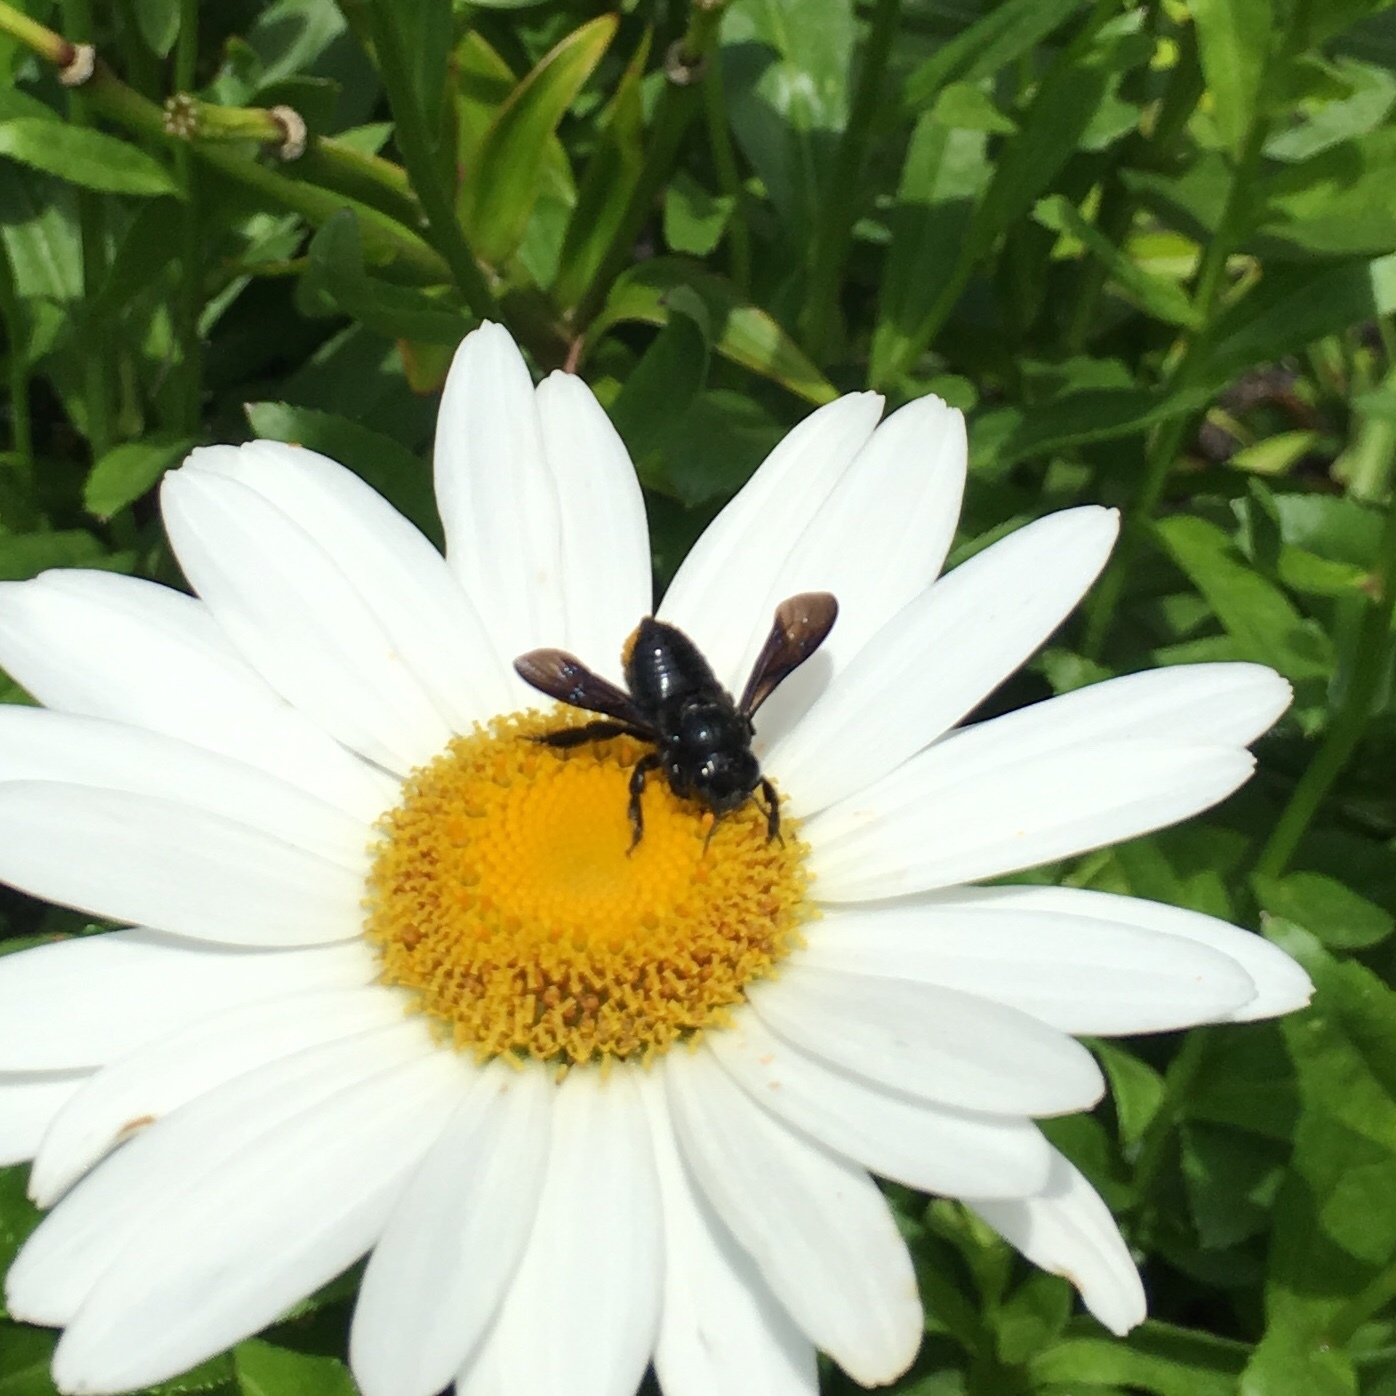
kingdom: Animalia
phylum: Arthropoda
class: Insecta
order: Hymenoptera
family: Megachilidae
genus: Megachile
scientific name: Megachile xylocopoides
